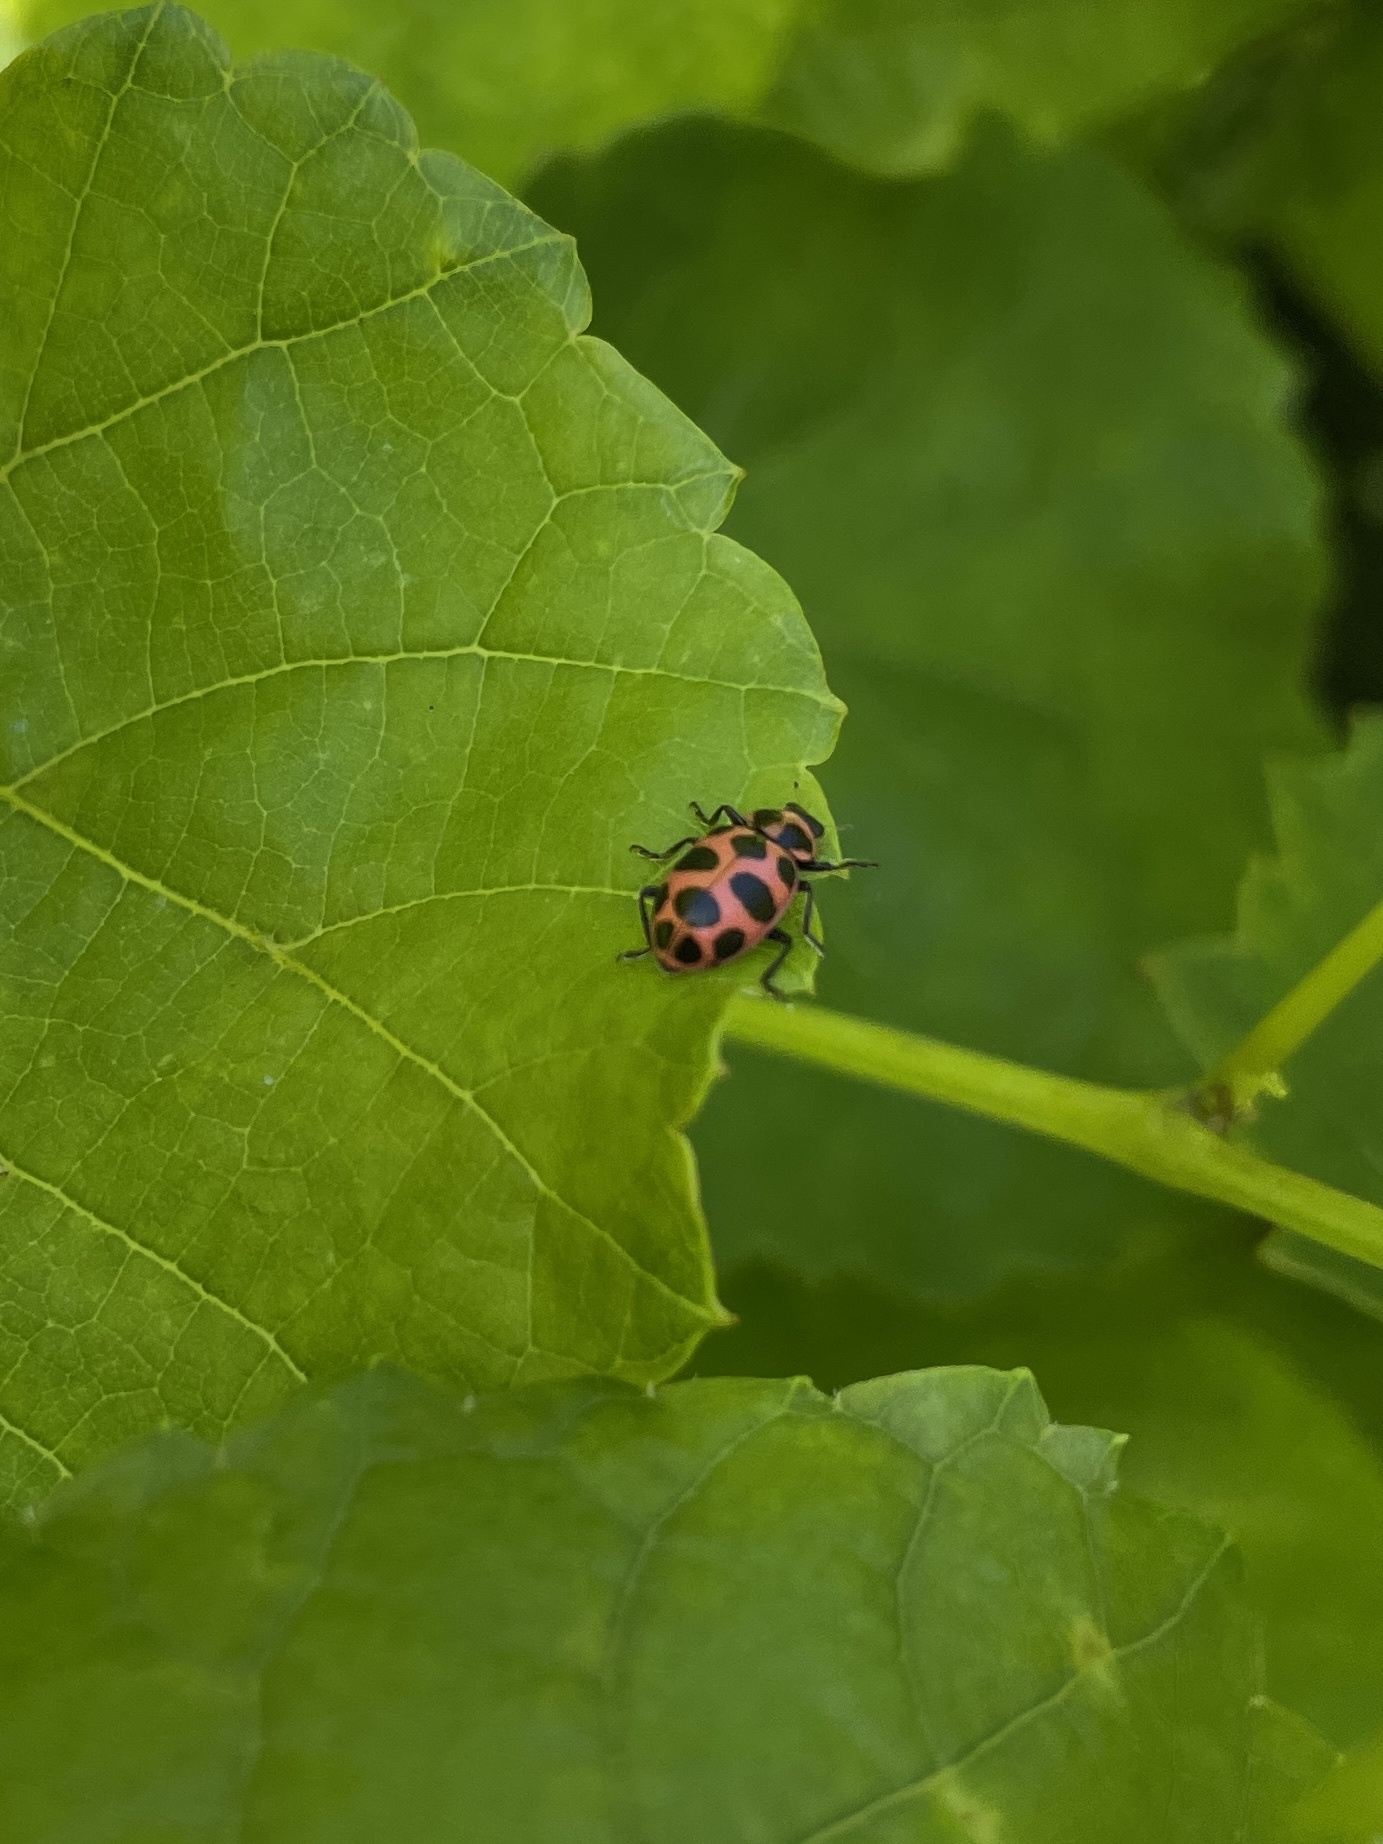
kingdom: Animalia
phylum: Arthropoda
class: Insecta
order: Coleoptera
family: Coccinellidae
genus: Coleomegilla
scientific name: Coleomegilla maculata
